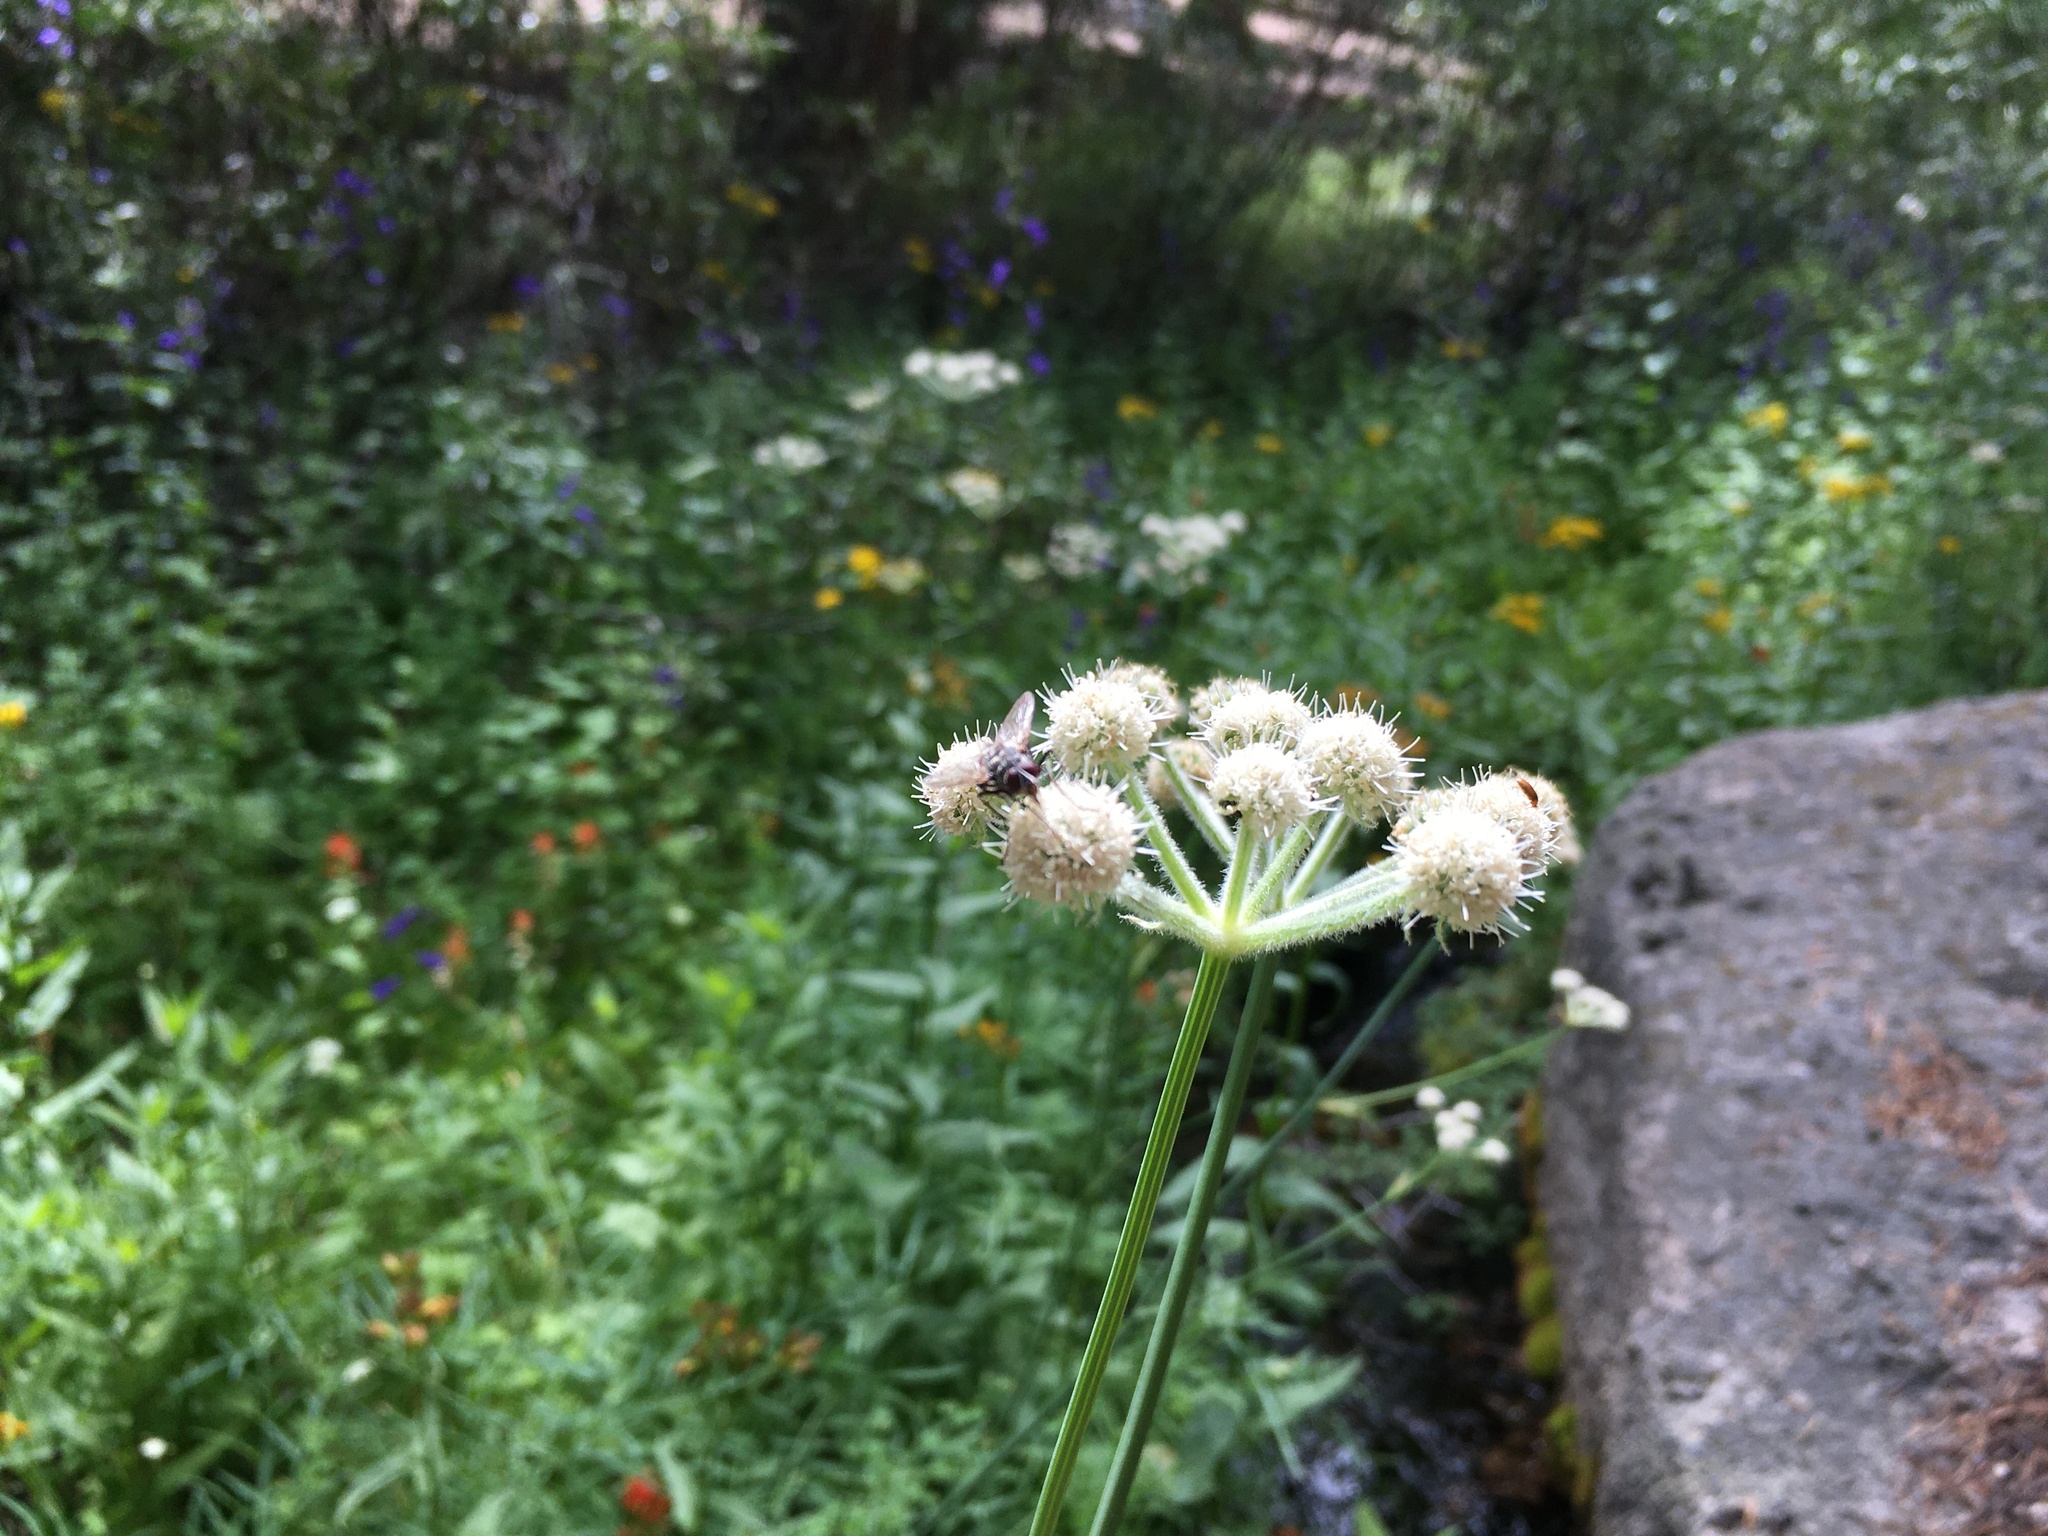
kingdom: Plantae
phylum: Tracheophyta
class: Magnoliopsida
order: Apiales
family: Apiaceae
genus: Angelica
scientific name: Angelica capitellata
